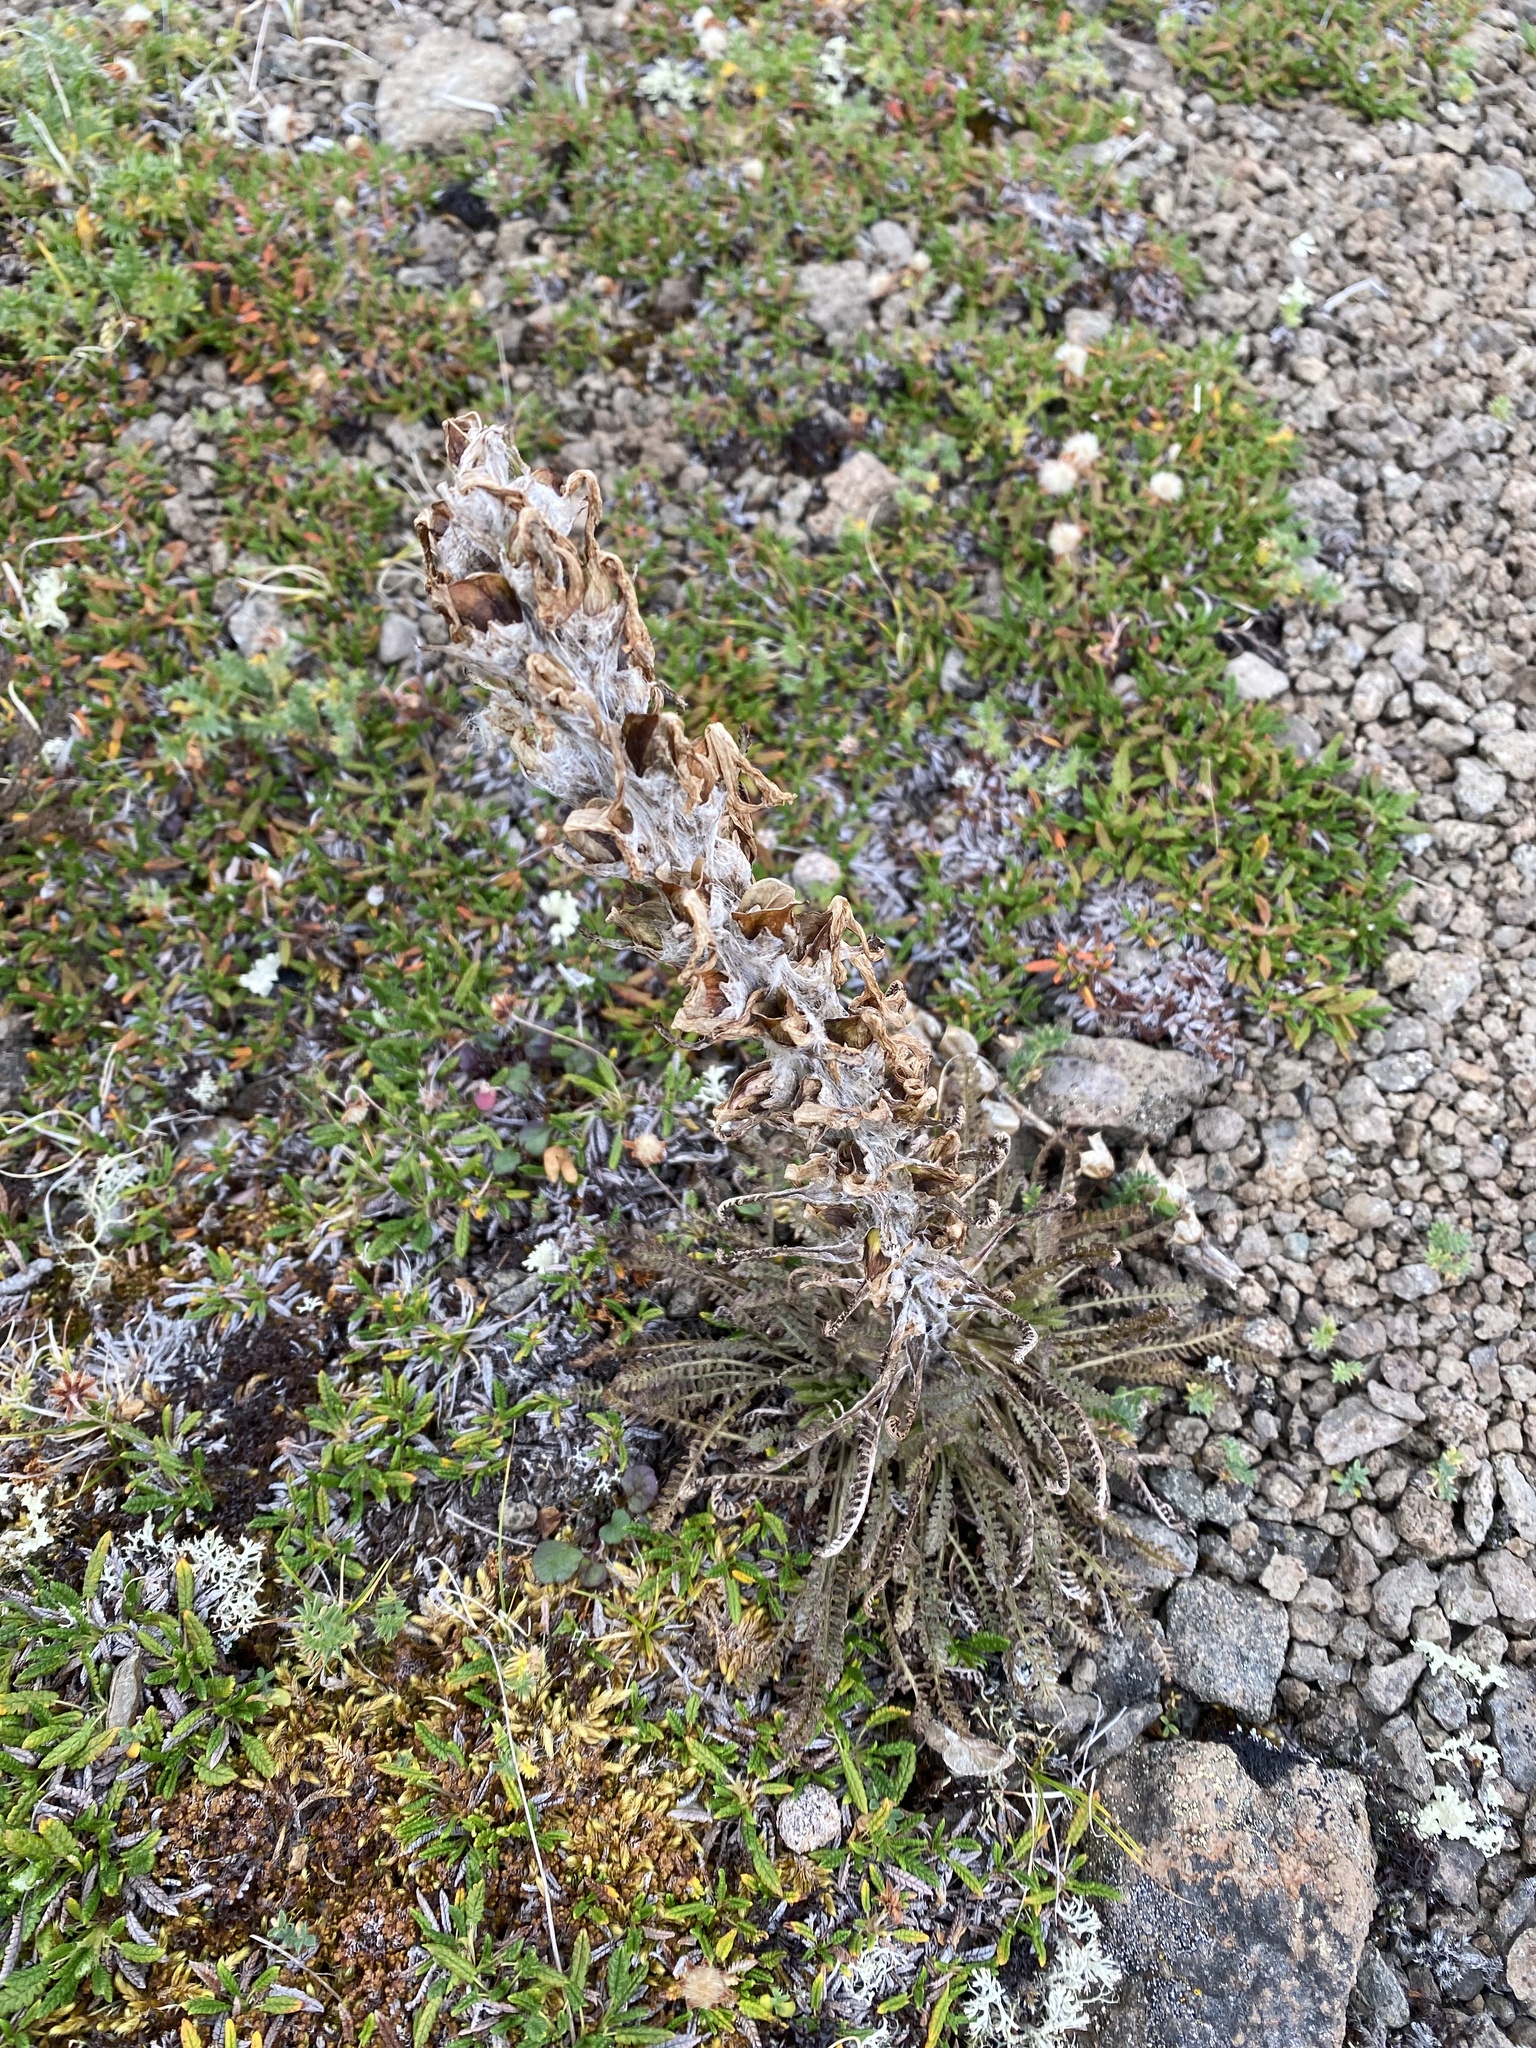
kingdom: Plantae
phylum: Tracheophyta
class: Magnoliopsida
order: Lamiales
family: Orobanchaceae
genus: Pedicularis
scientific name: Pedicularis alopecuroides
